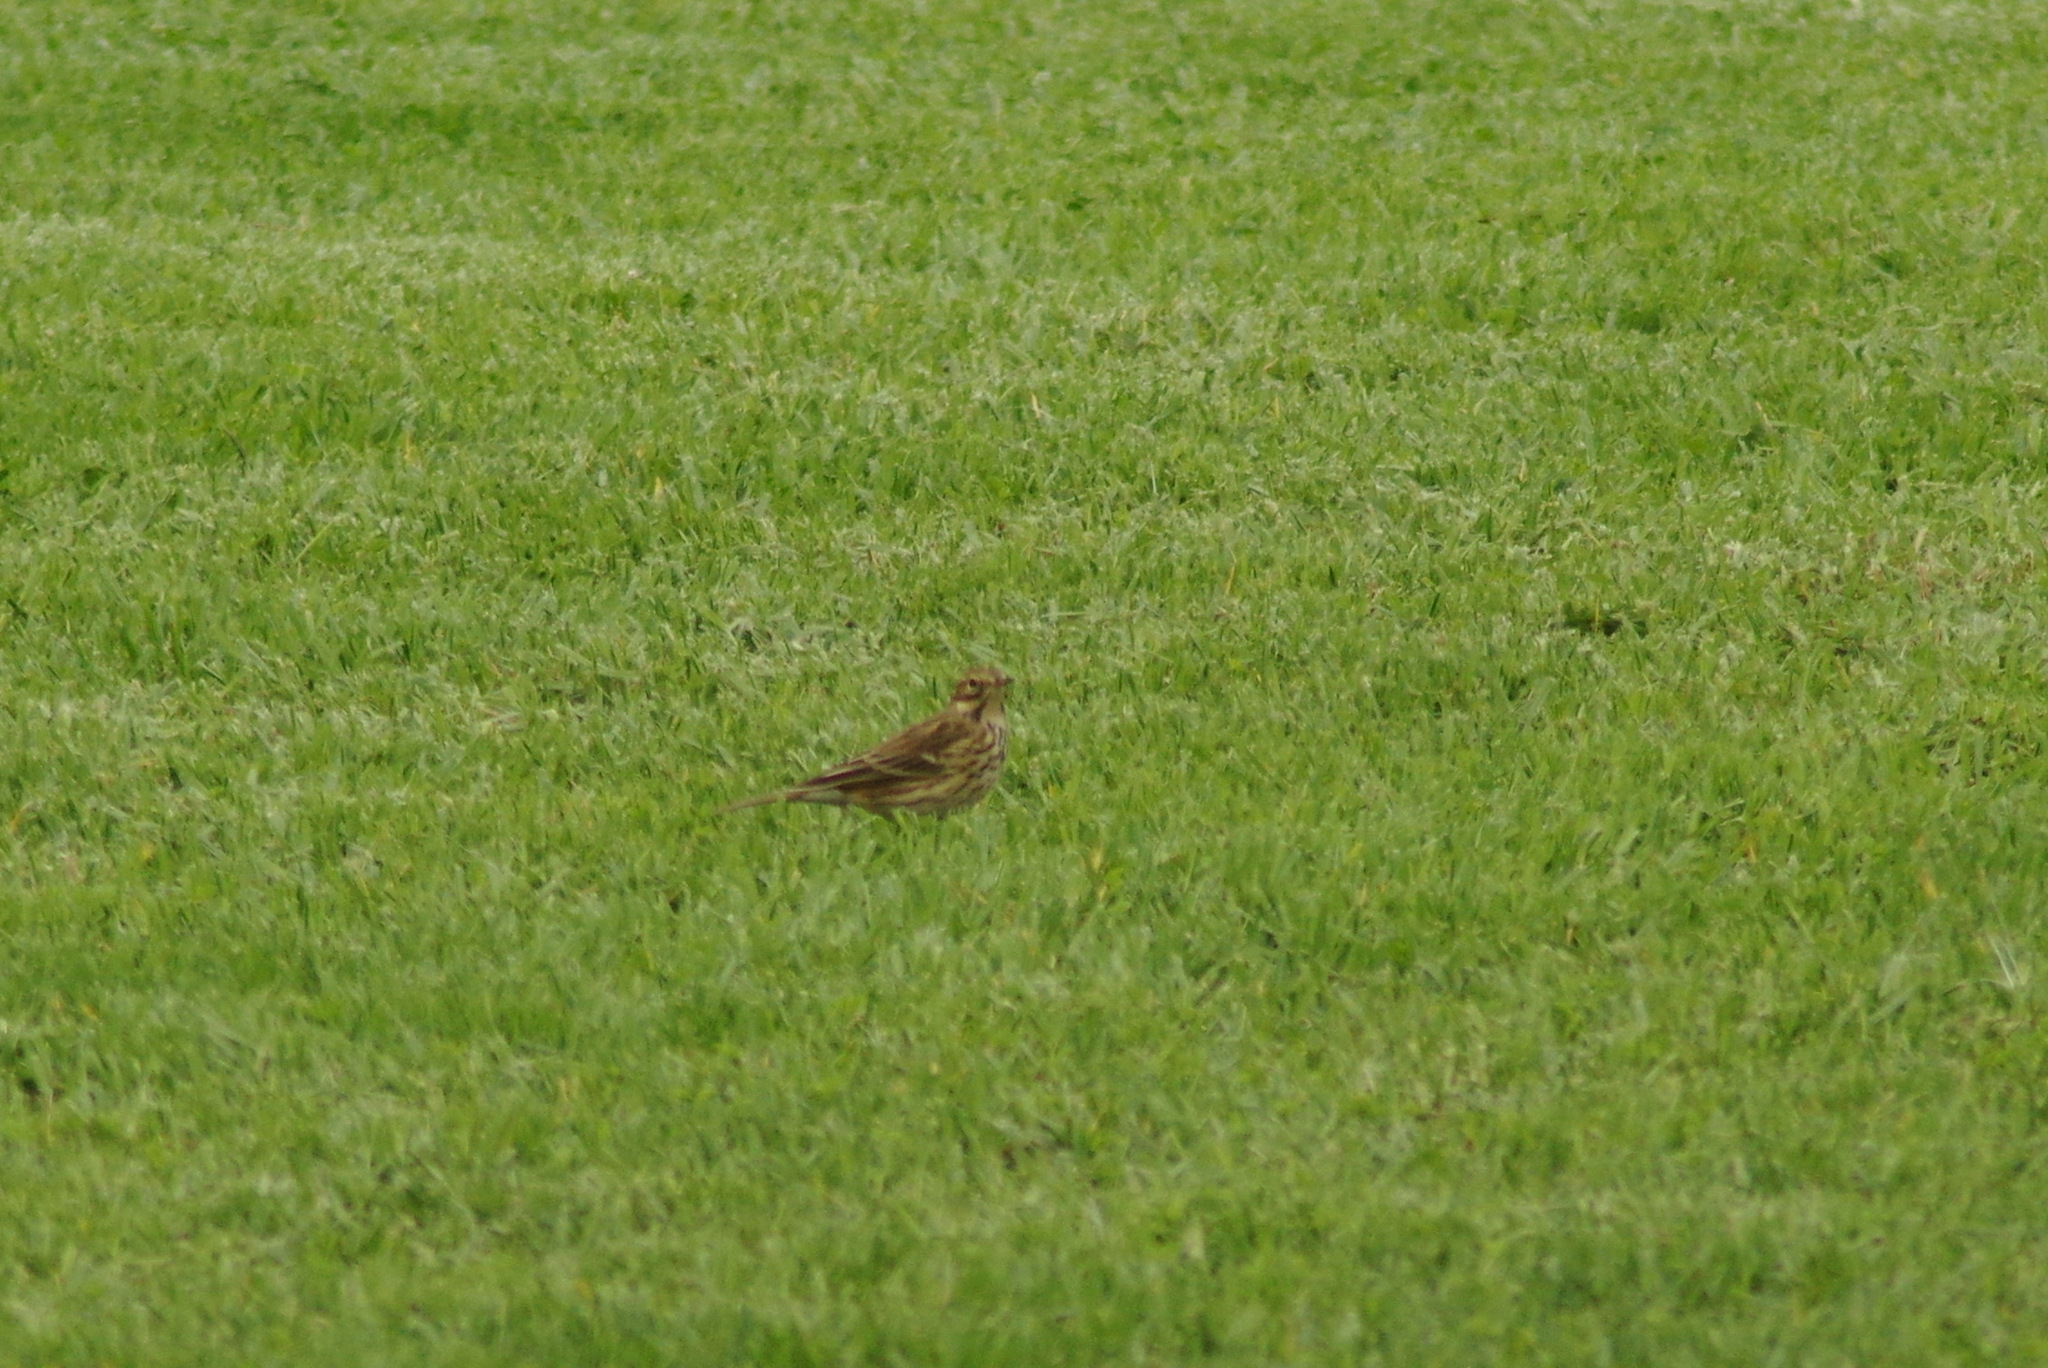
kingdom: Animalia
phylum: Chordata
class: Aves
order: Passeriformes
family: Motacillidae
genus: Anthus
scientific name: Anthus pratensis
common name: Meadow pipit
